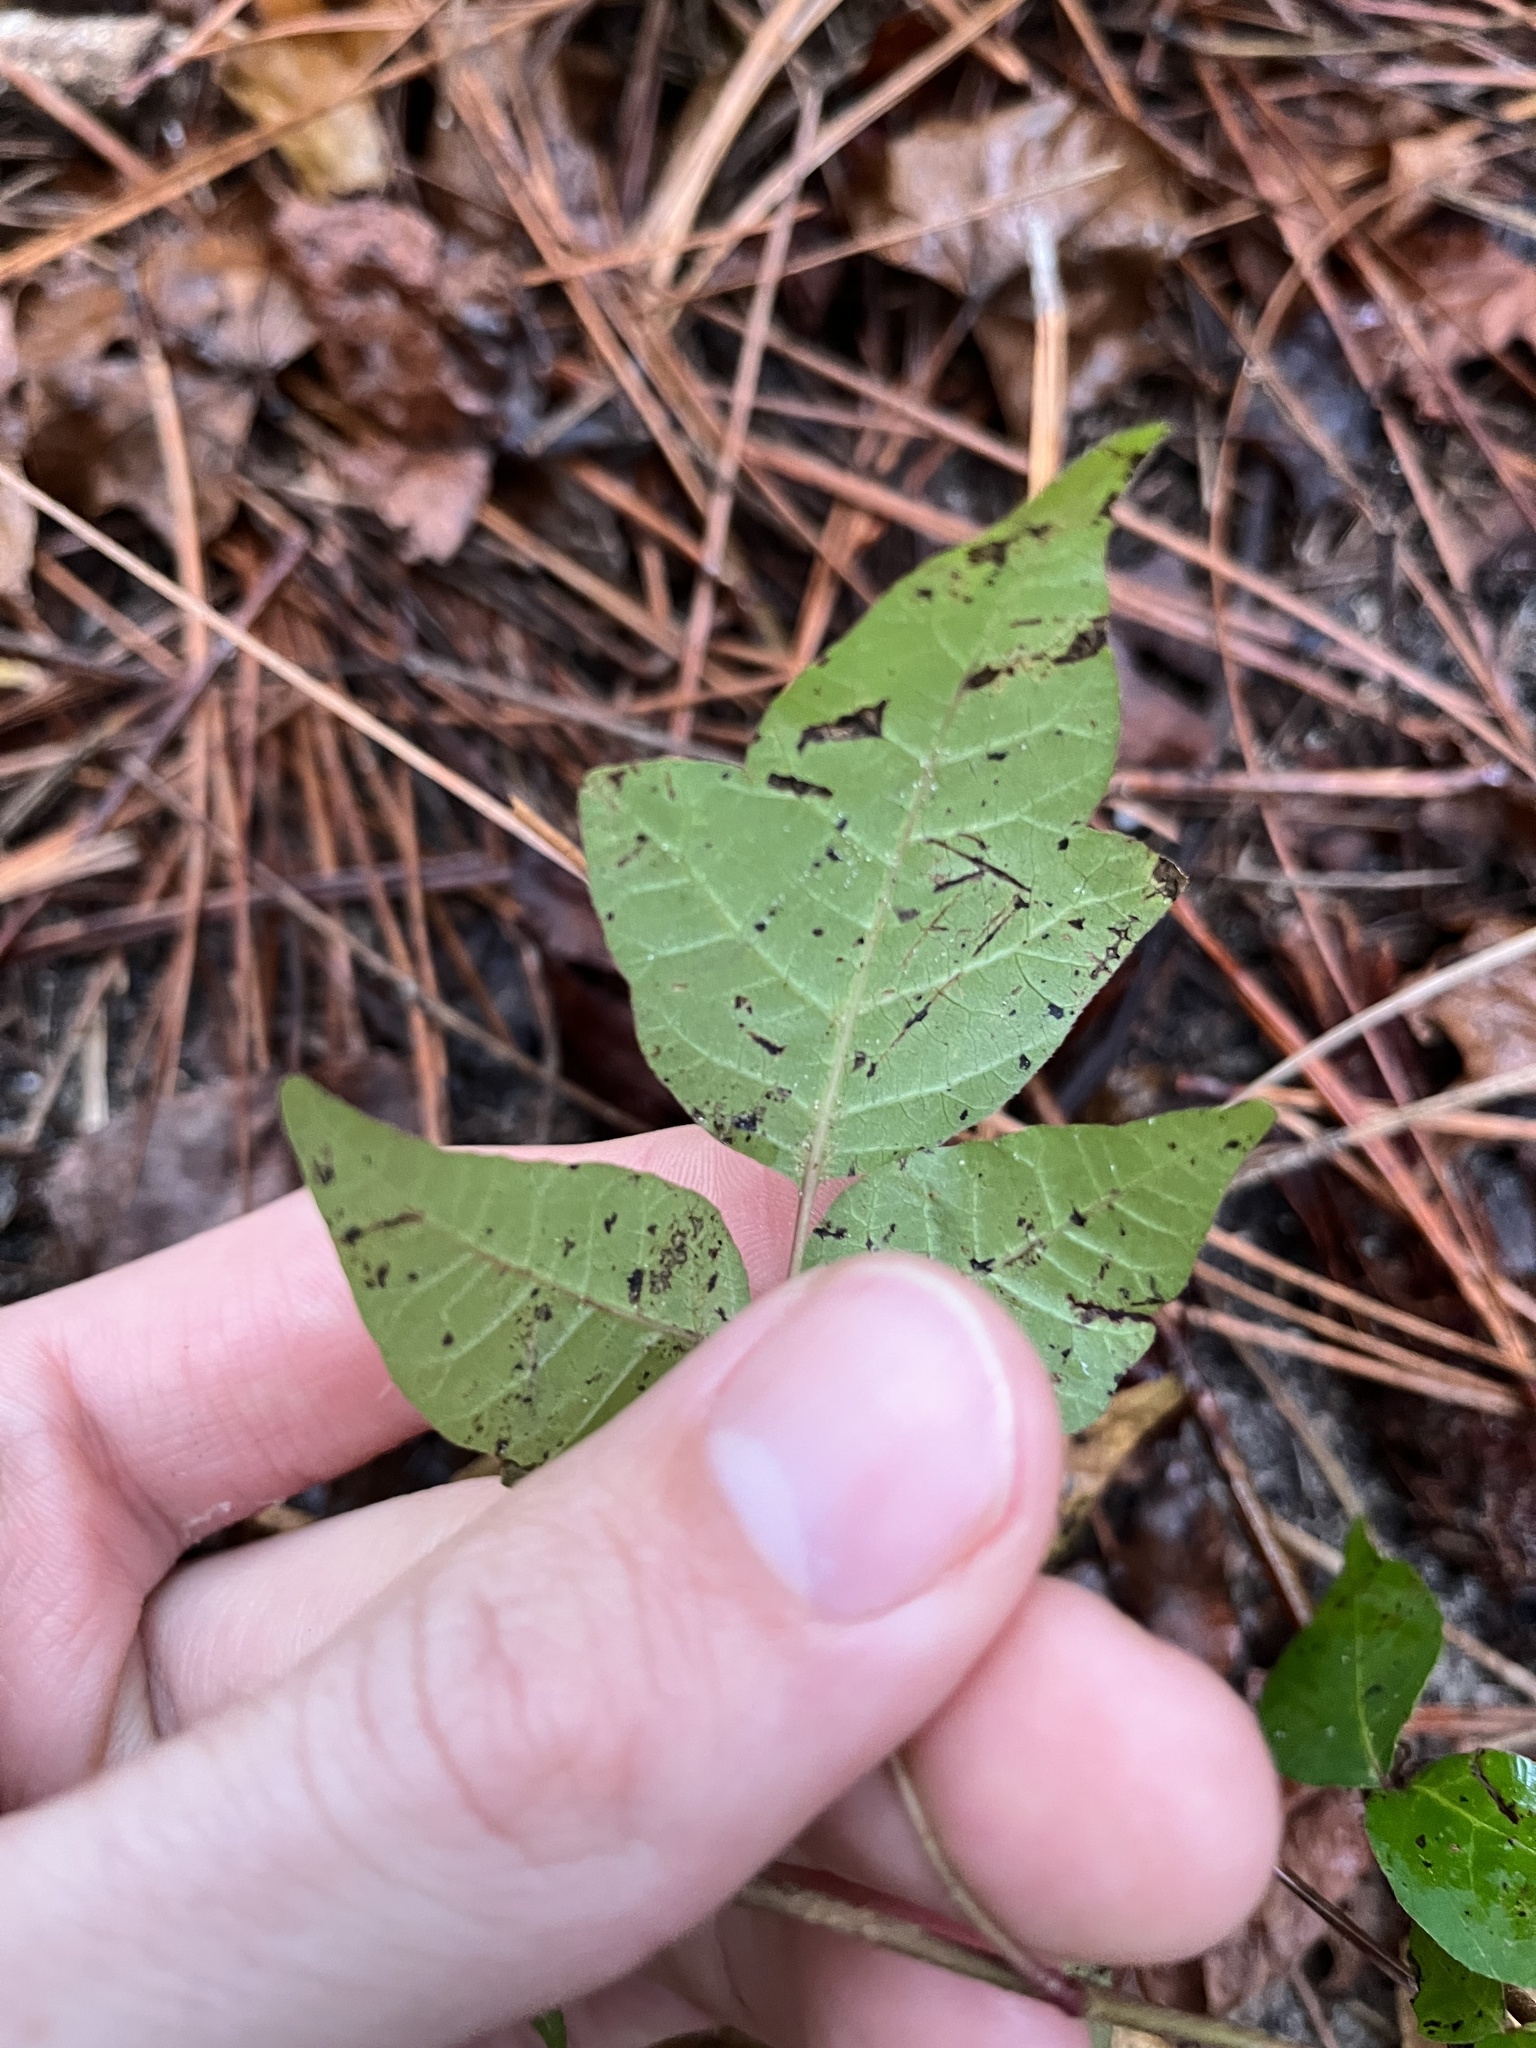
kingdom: Plantae
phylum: Tracheophyta
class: Magnoliopsida
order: Sapindales
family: Anacardiaceae
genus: Toxicodendron
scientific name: Toxicodendron radicans
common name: Poison ivy
